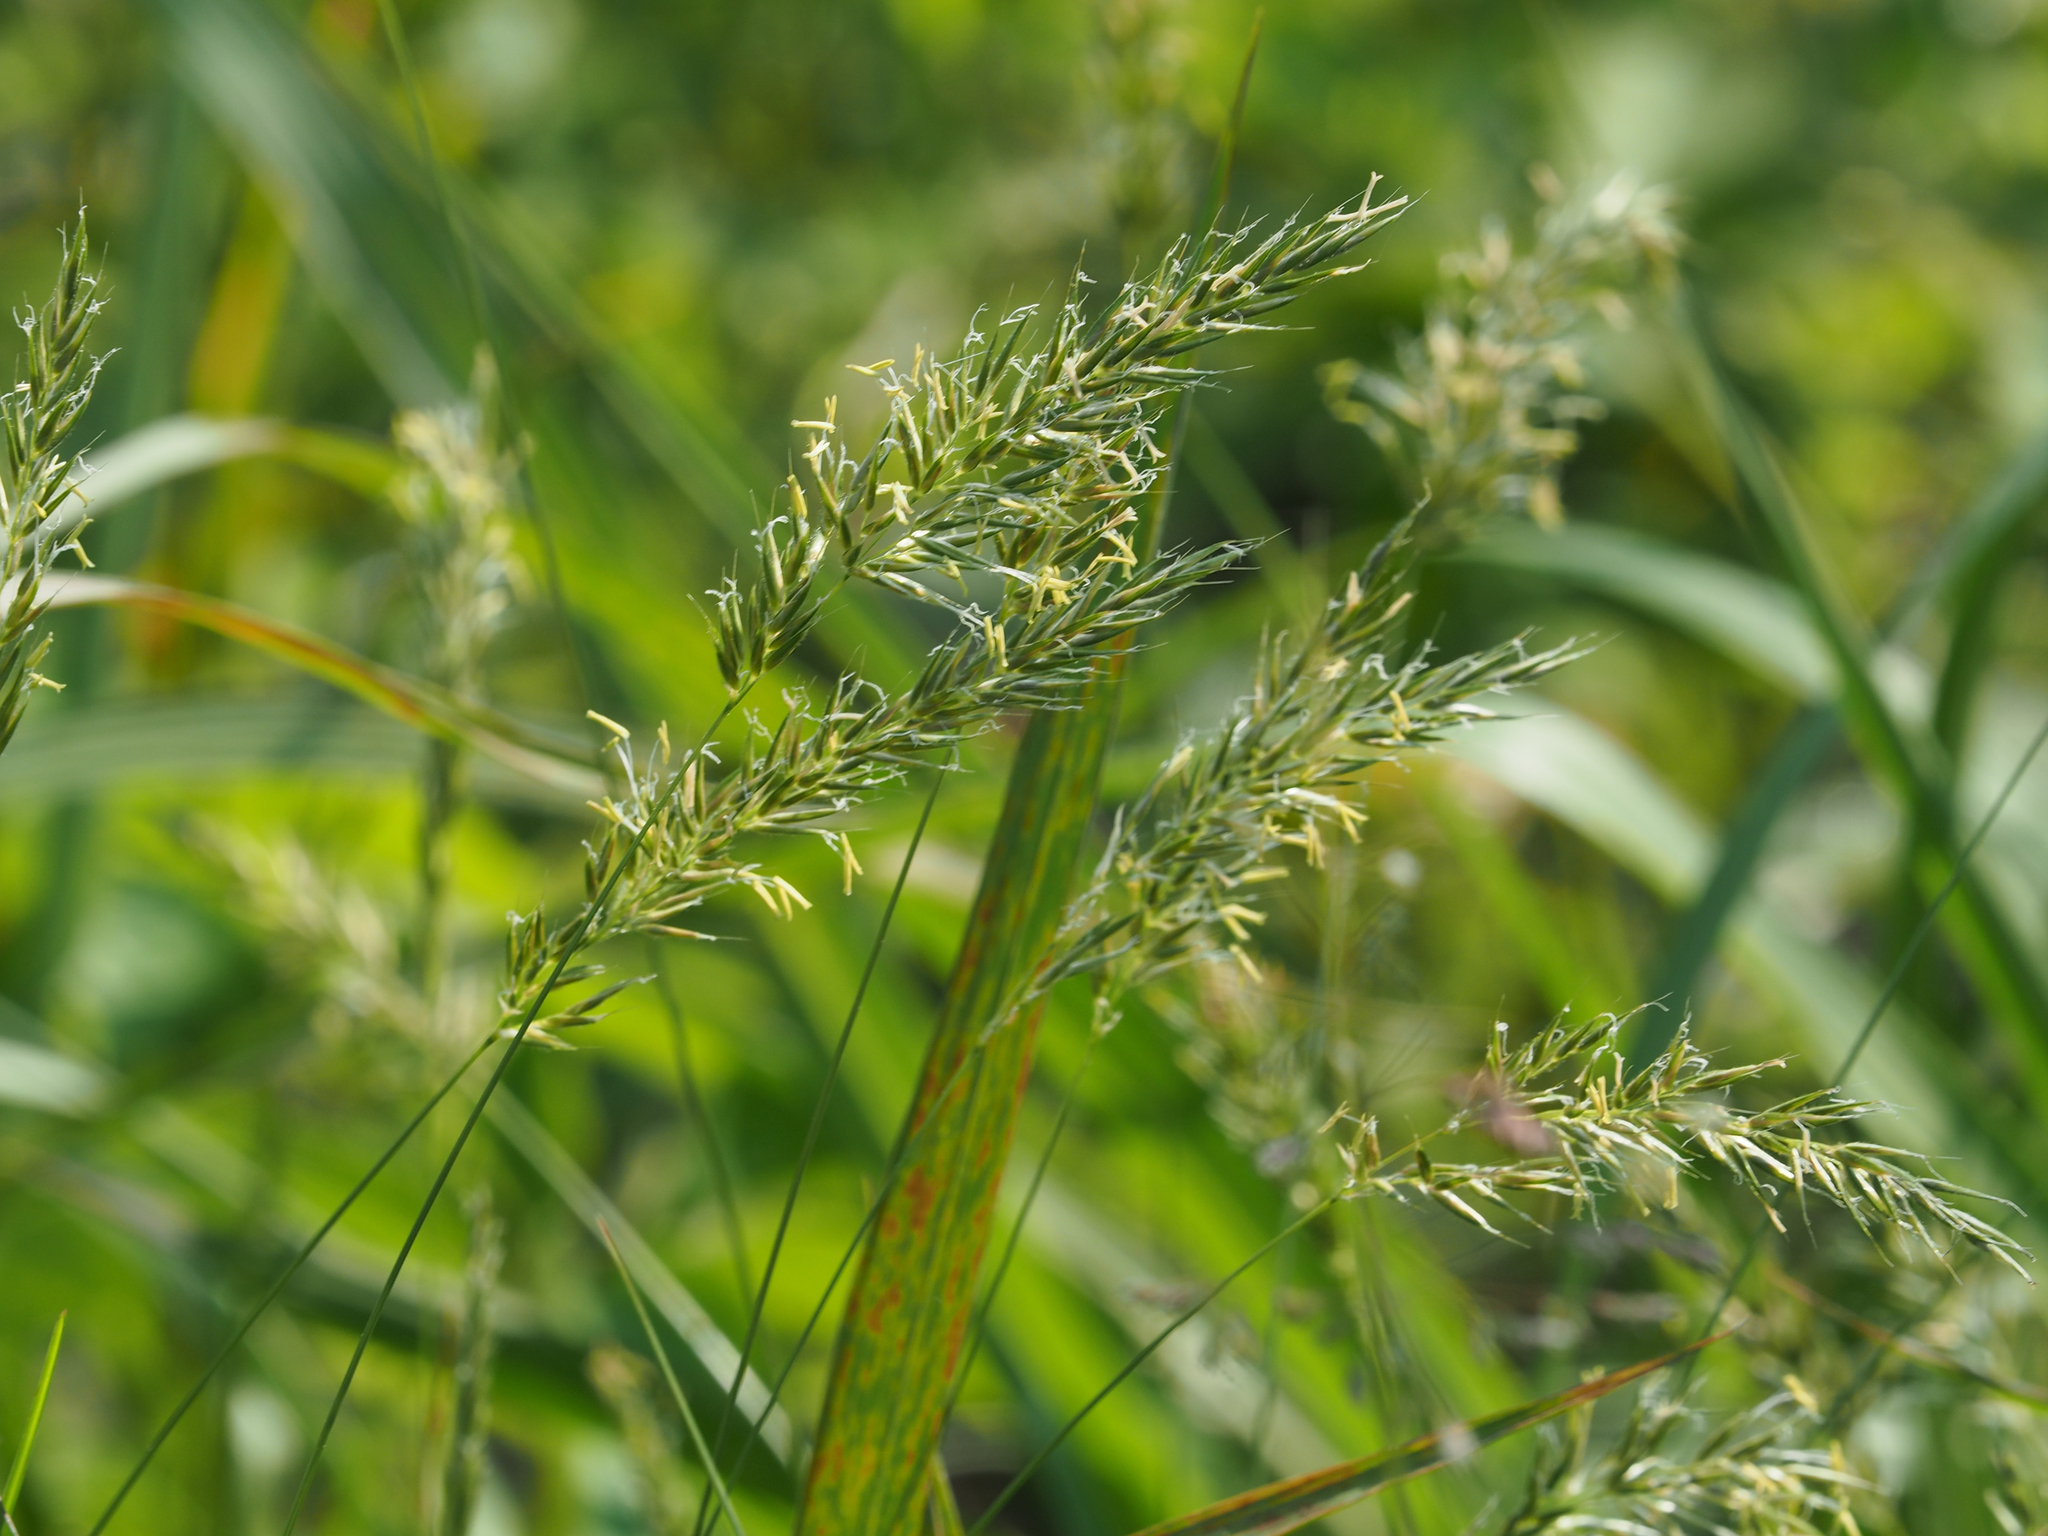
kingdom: Plantae
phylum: Tracheophyta
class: Liliopsida
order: Poales
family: Poaceae
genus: Anthoxanthum
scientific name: Anthoxanthum odoratum
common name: Sweet vernalgrass
